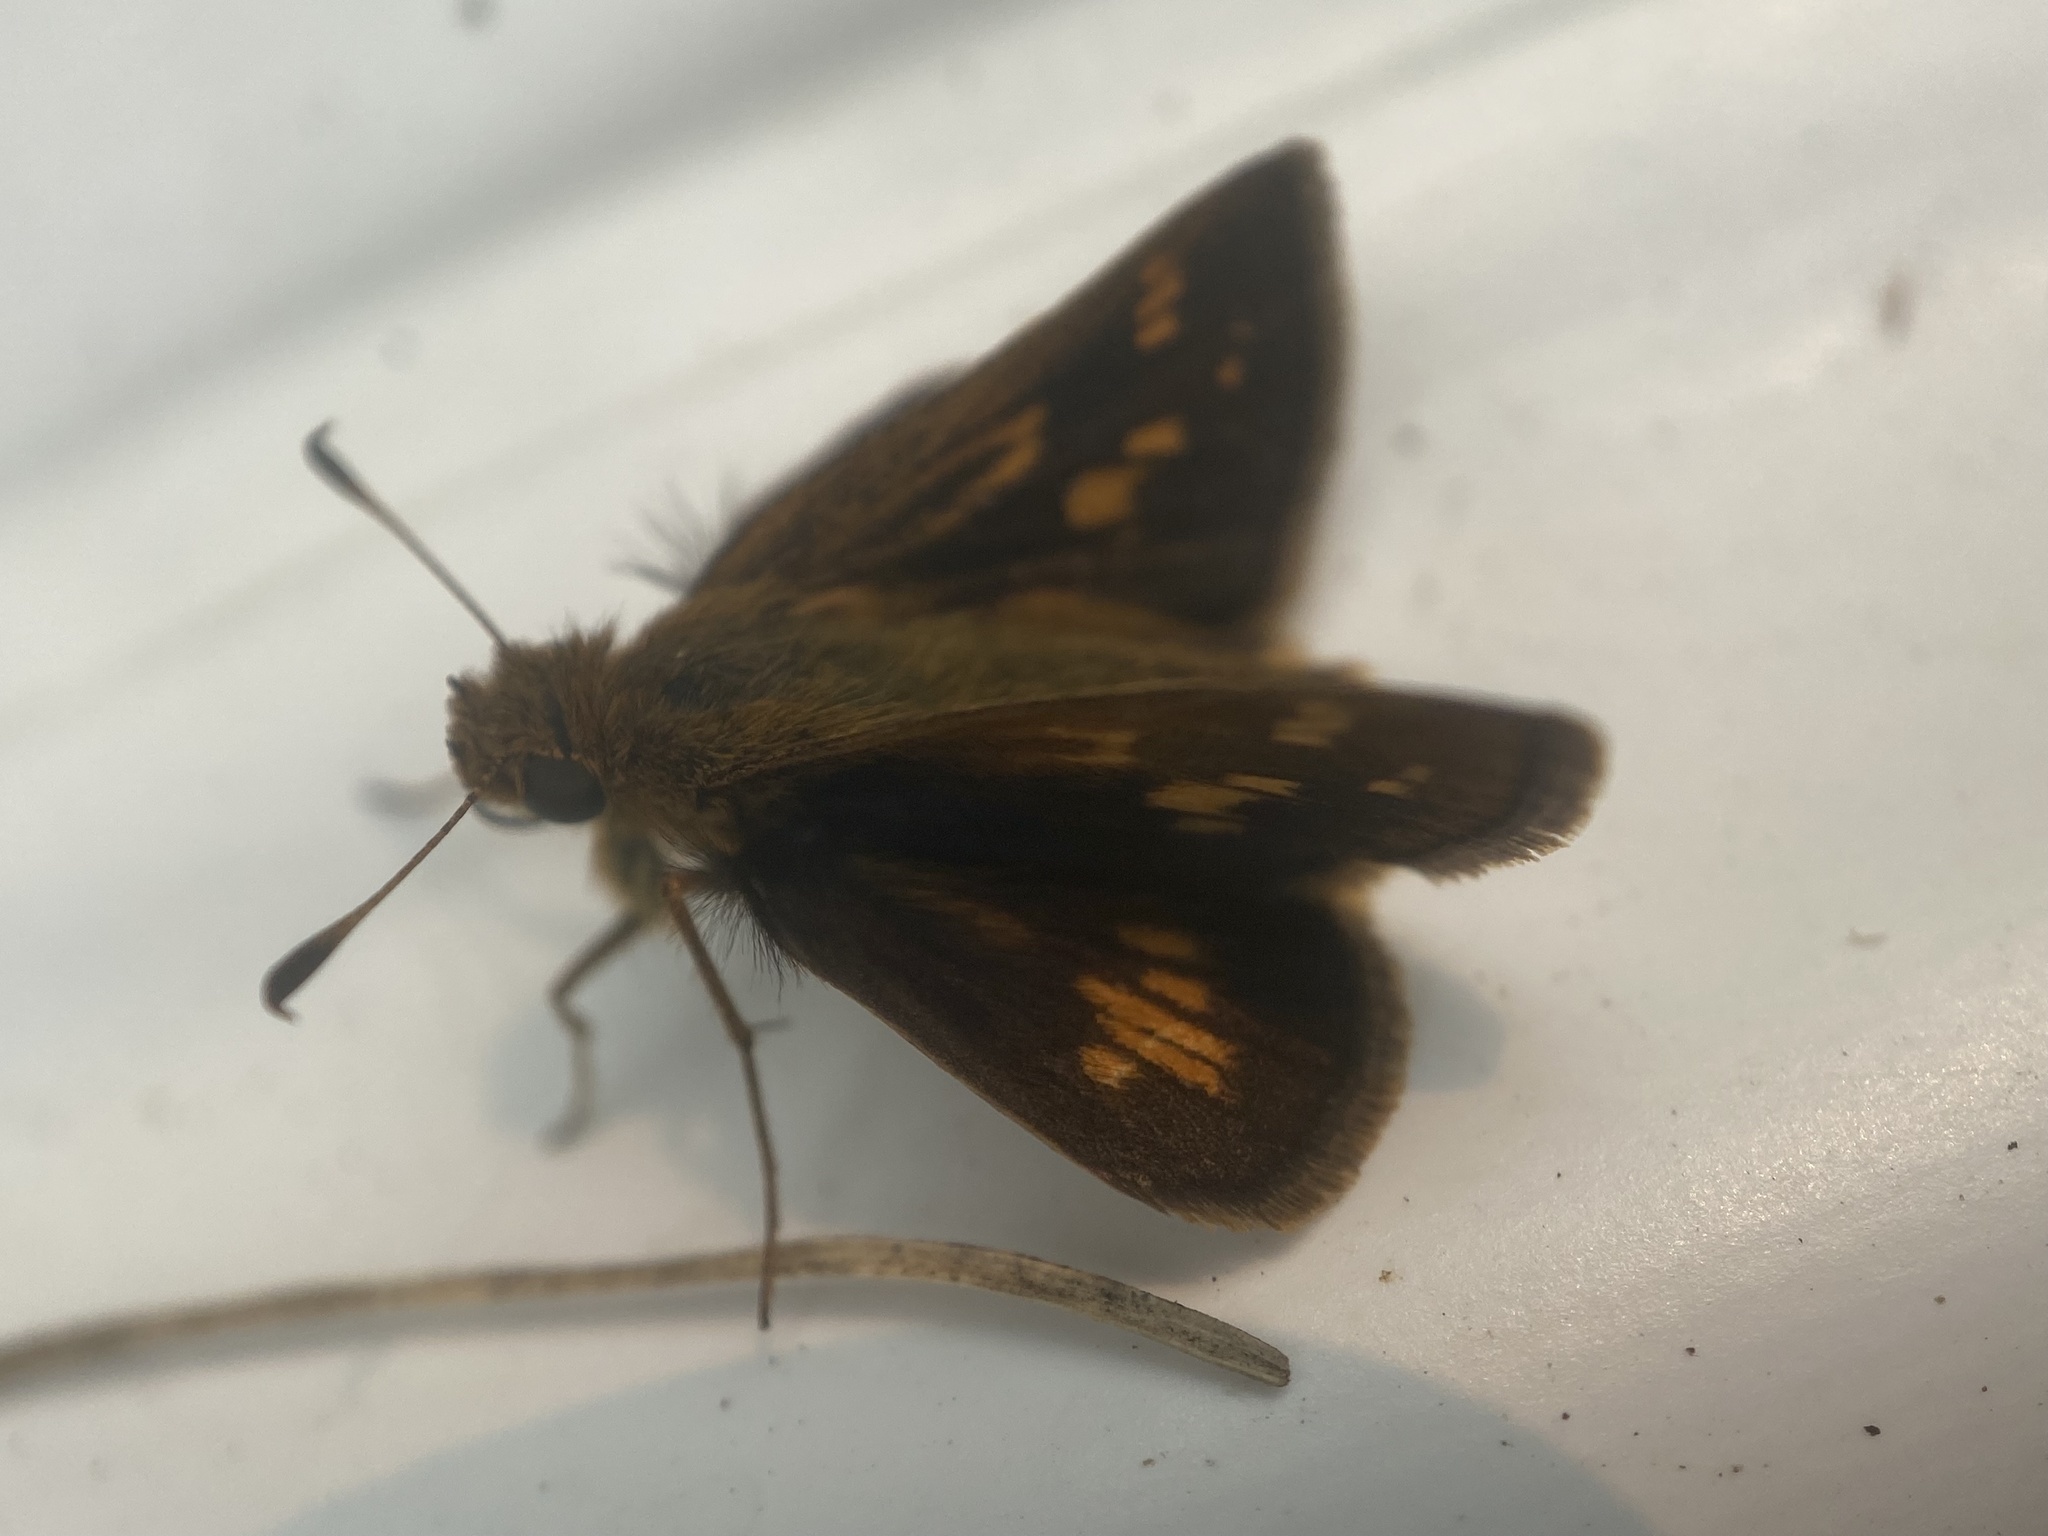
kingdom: Animalia
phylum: Arthropoda
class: Insecta
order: Lepidoptera
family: Hesperiidae
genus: Polites
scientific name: Polites coras
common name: Peck's skipper
